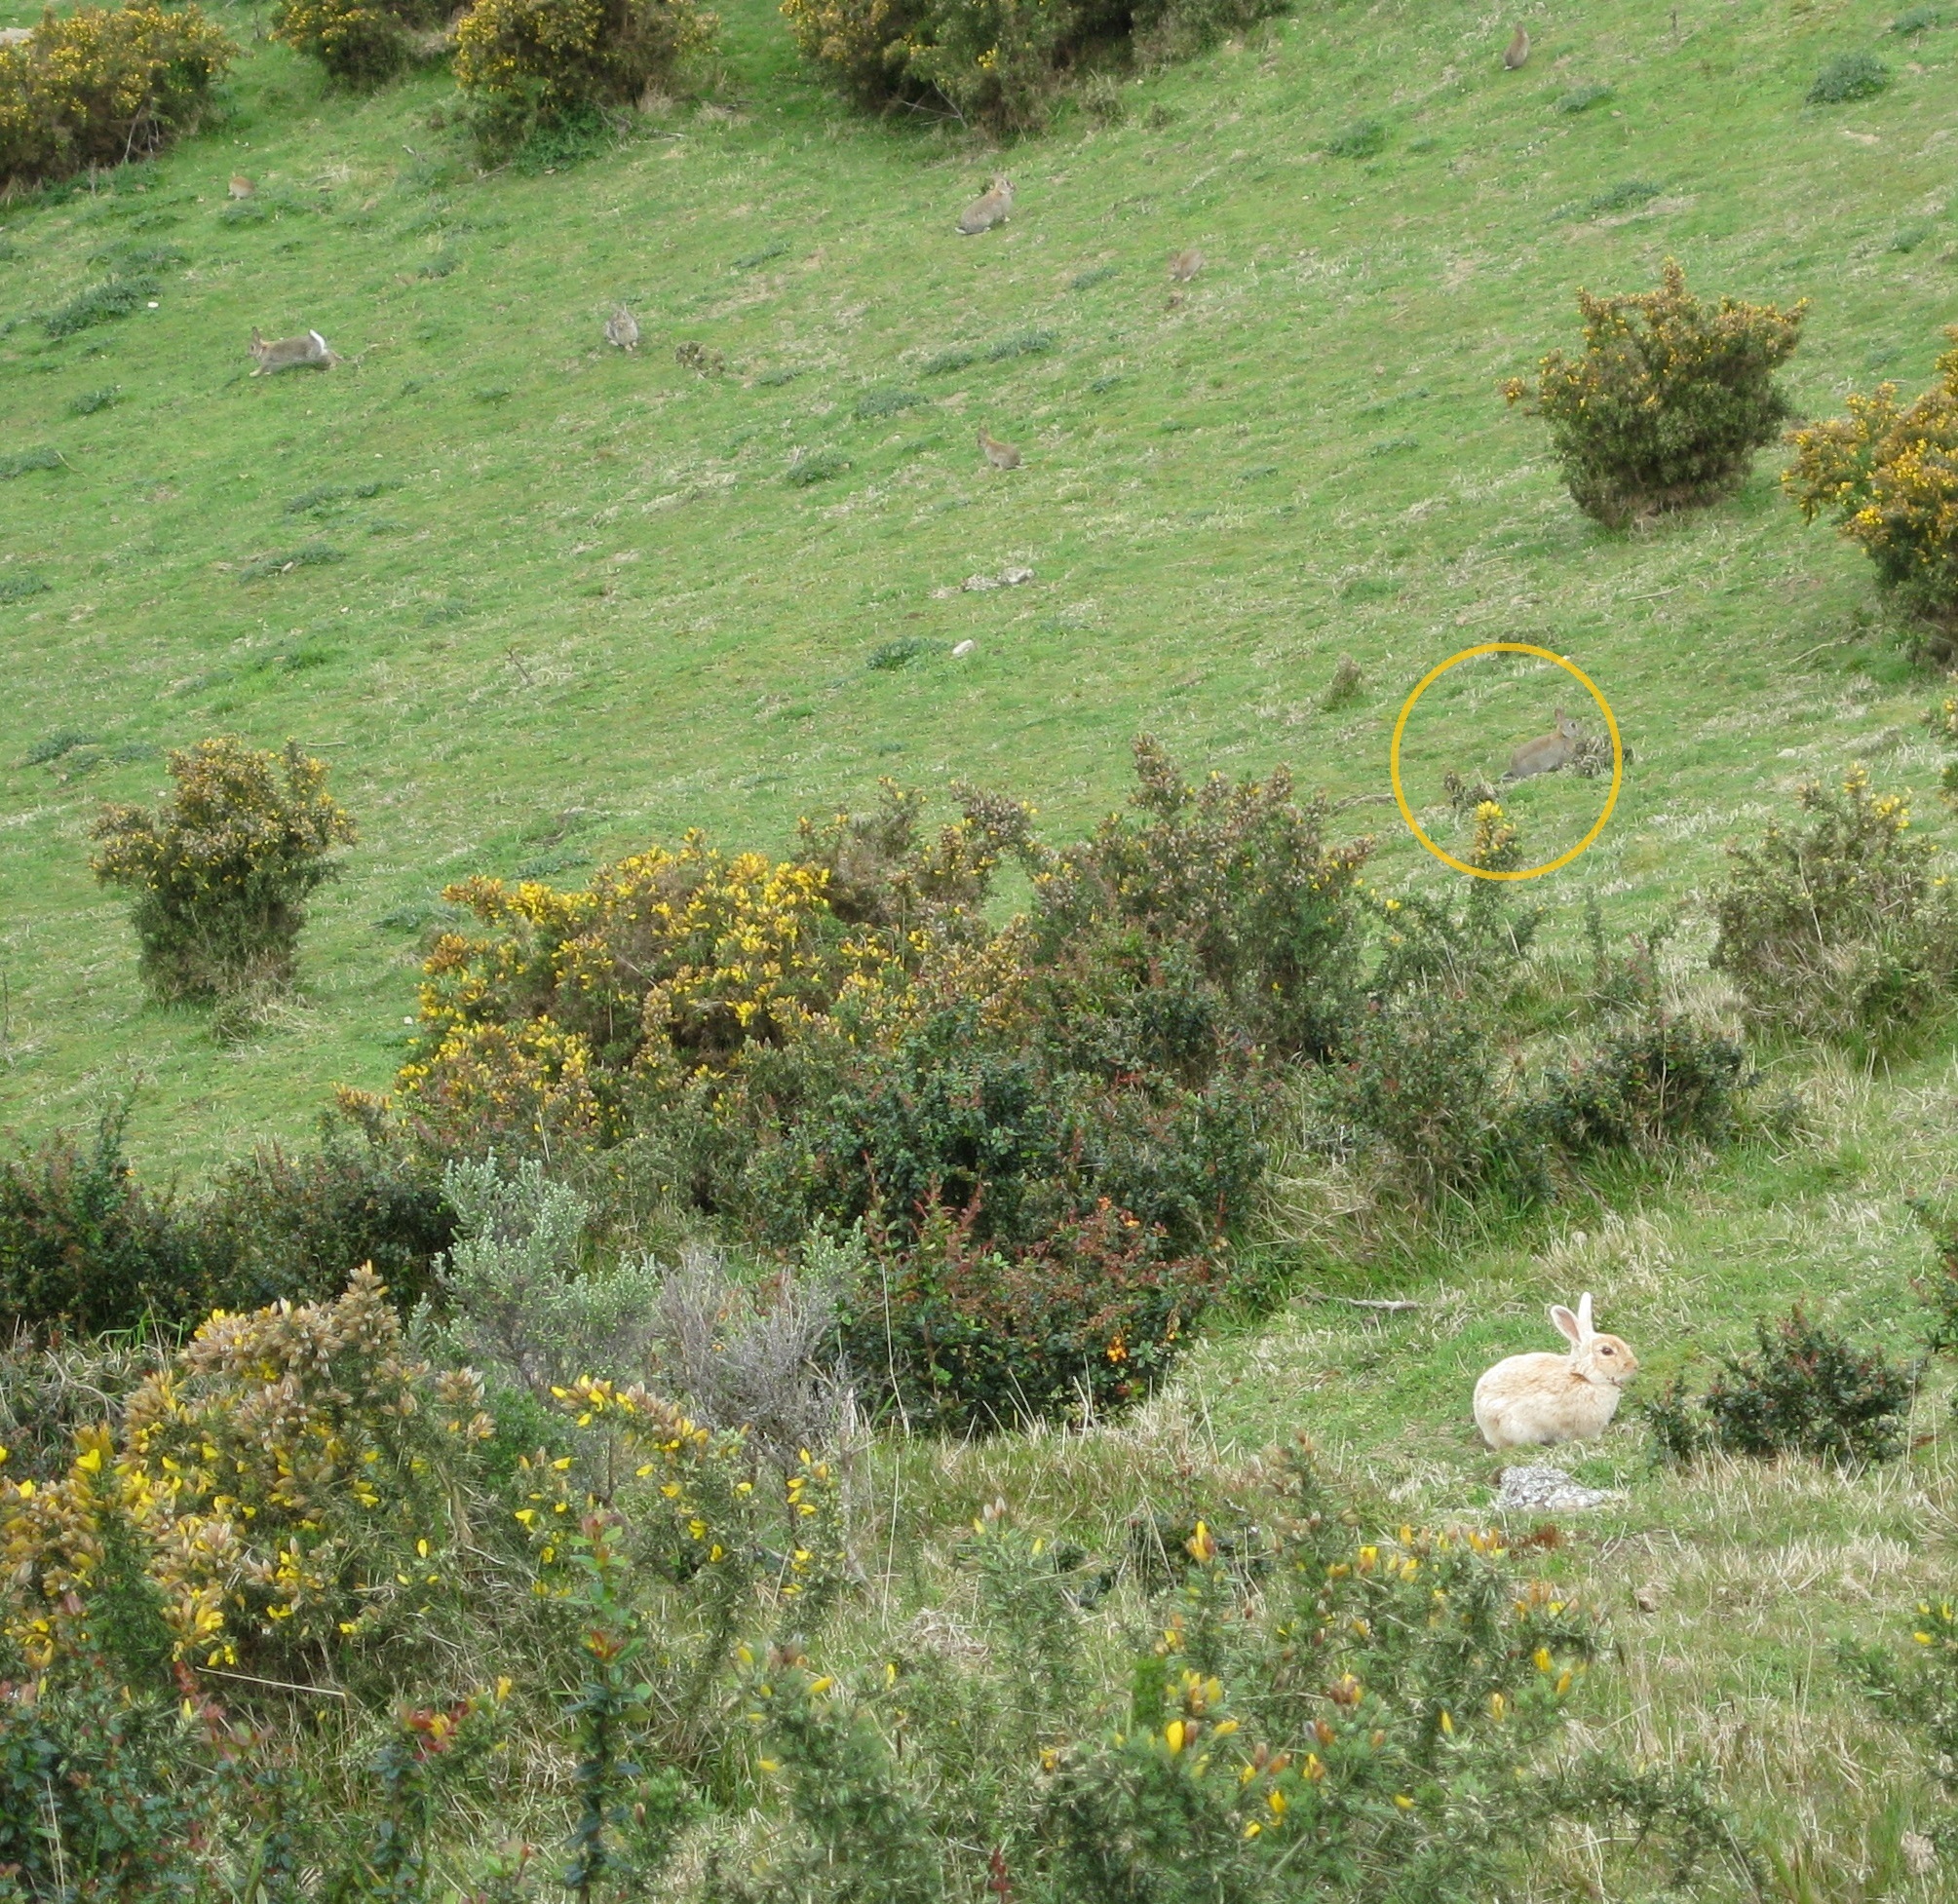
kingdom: Animalia
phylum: Chordata
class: Mammalia
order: Lagomorpha
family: Leporidae
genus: Oryctolagus
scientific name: Oryctolagus cuniculus
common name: European rabbit
